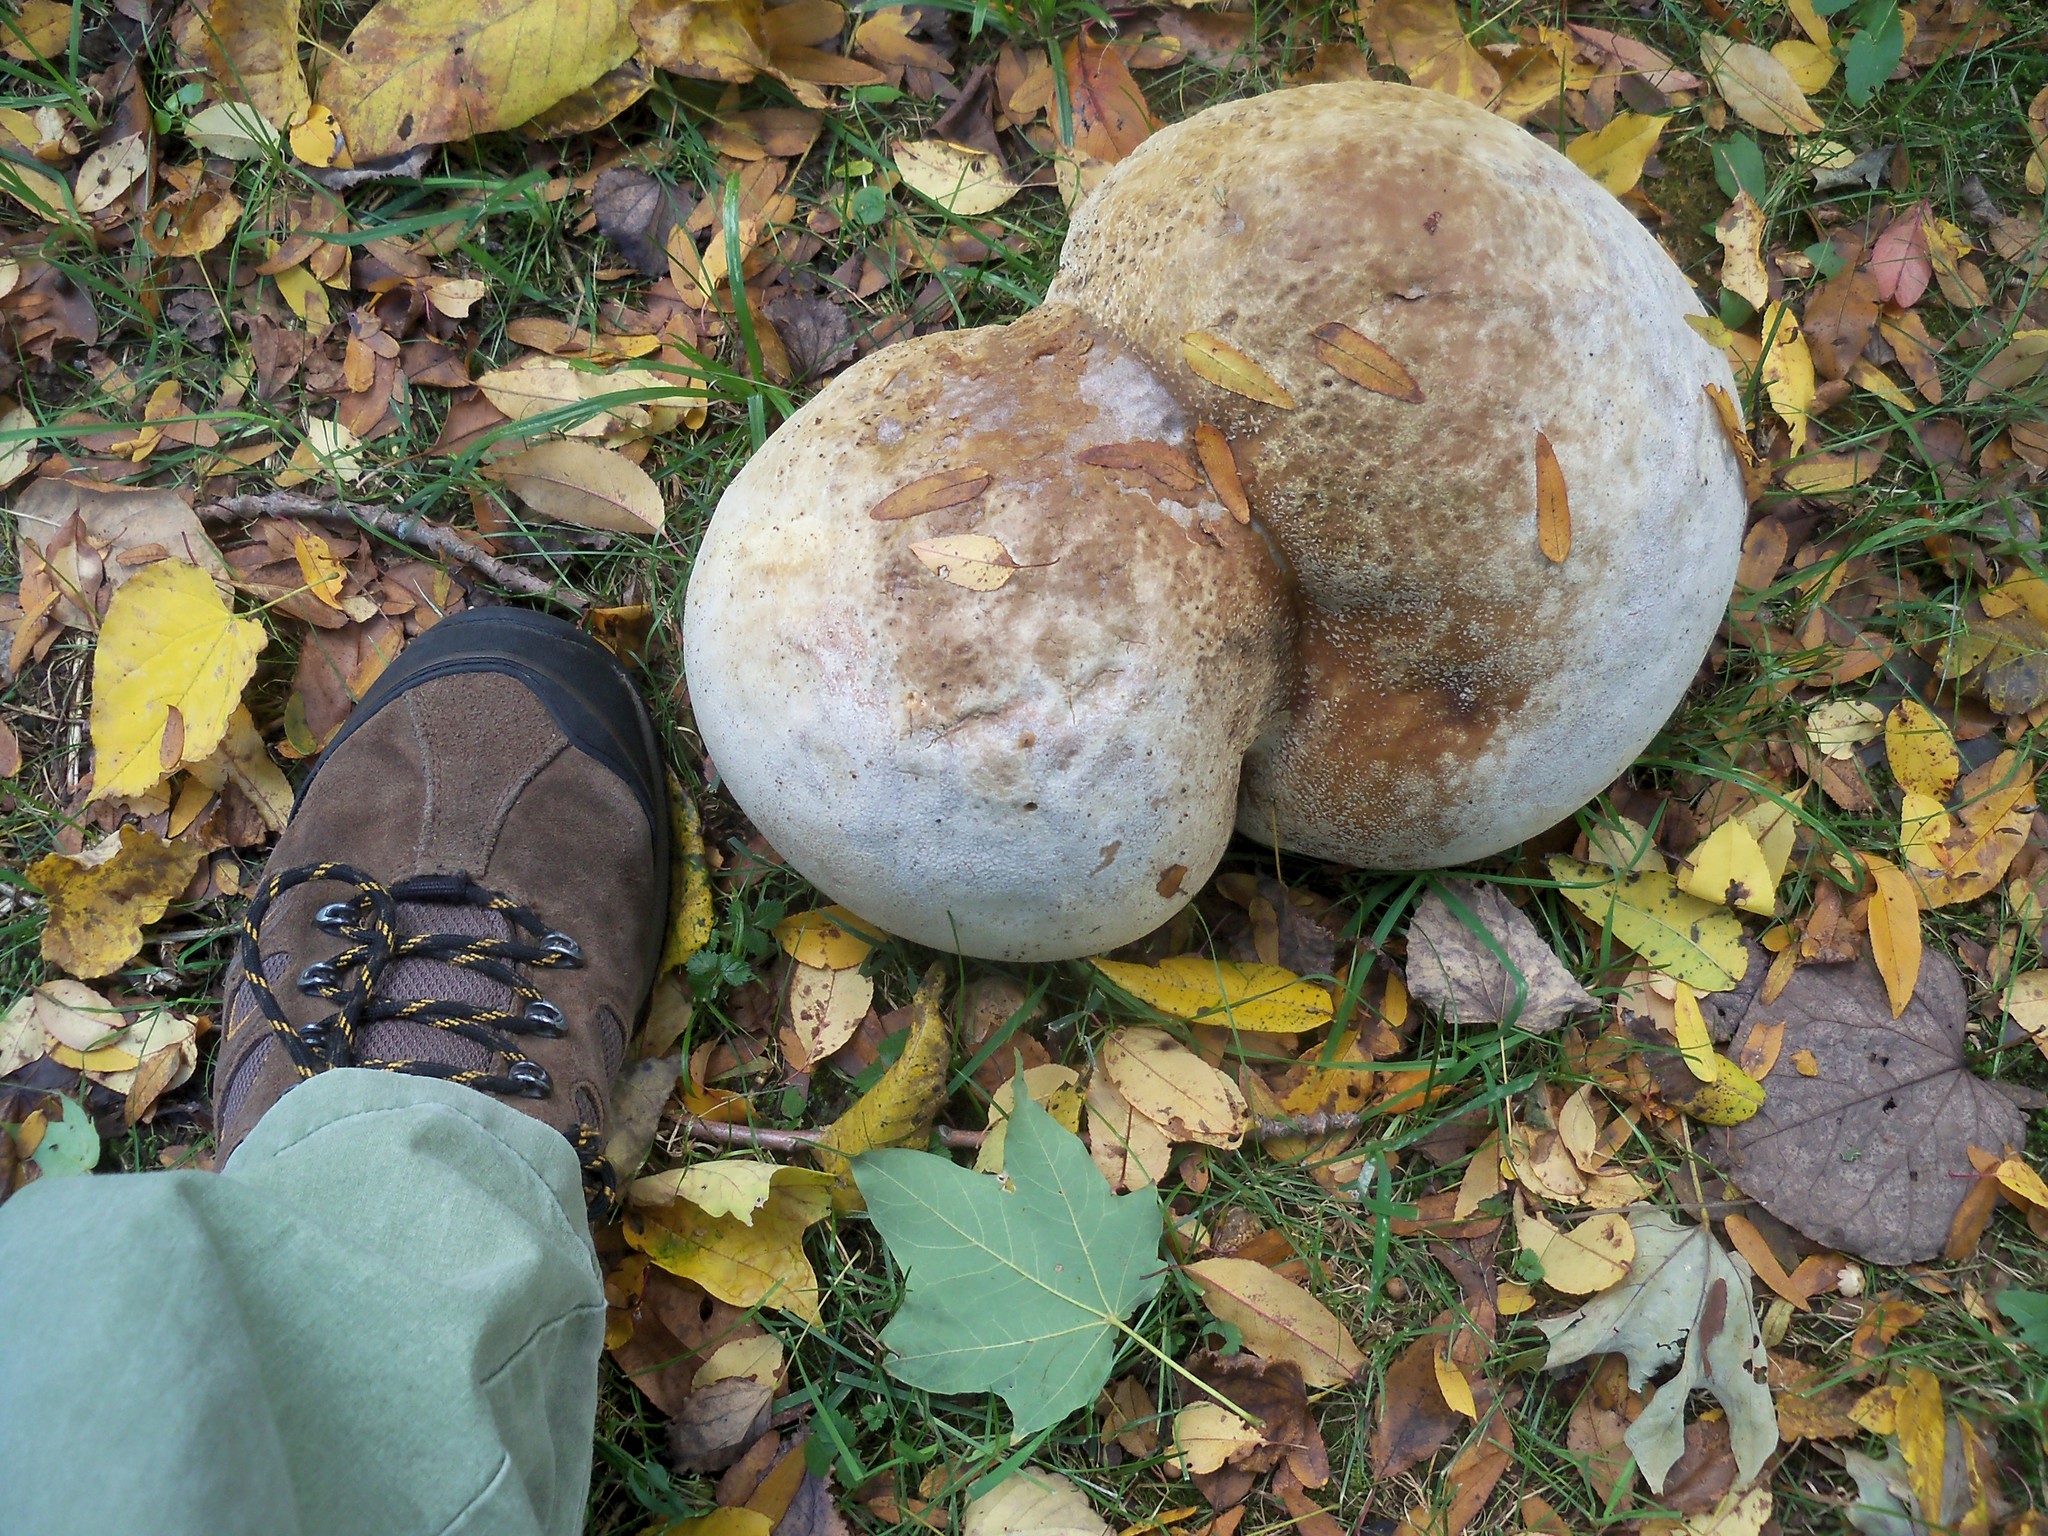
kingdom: Fungi
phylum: Basidiomycota
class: Agaricomycetes
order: Agaricales
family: Lycoperdaceae
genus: Calvatia
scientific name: Calvatia gigantea
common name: Giant puffball
